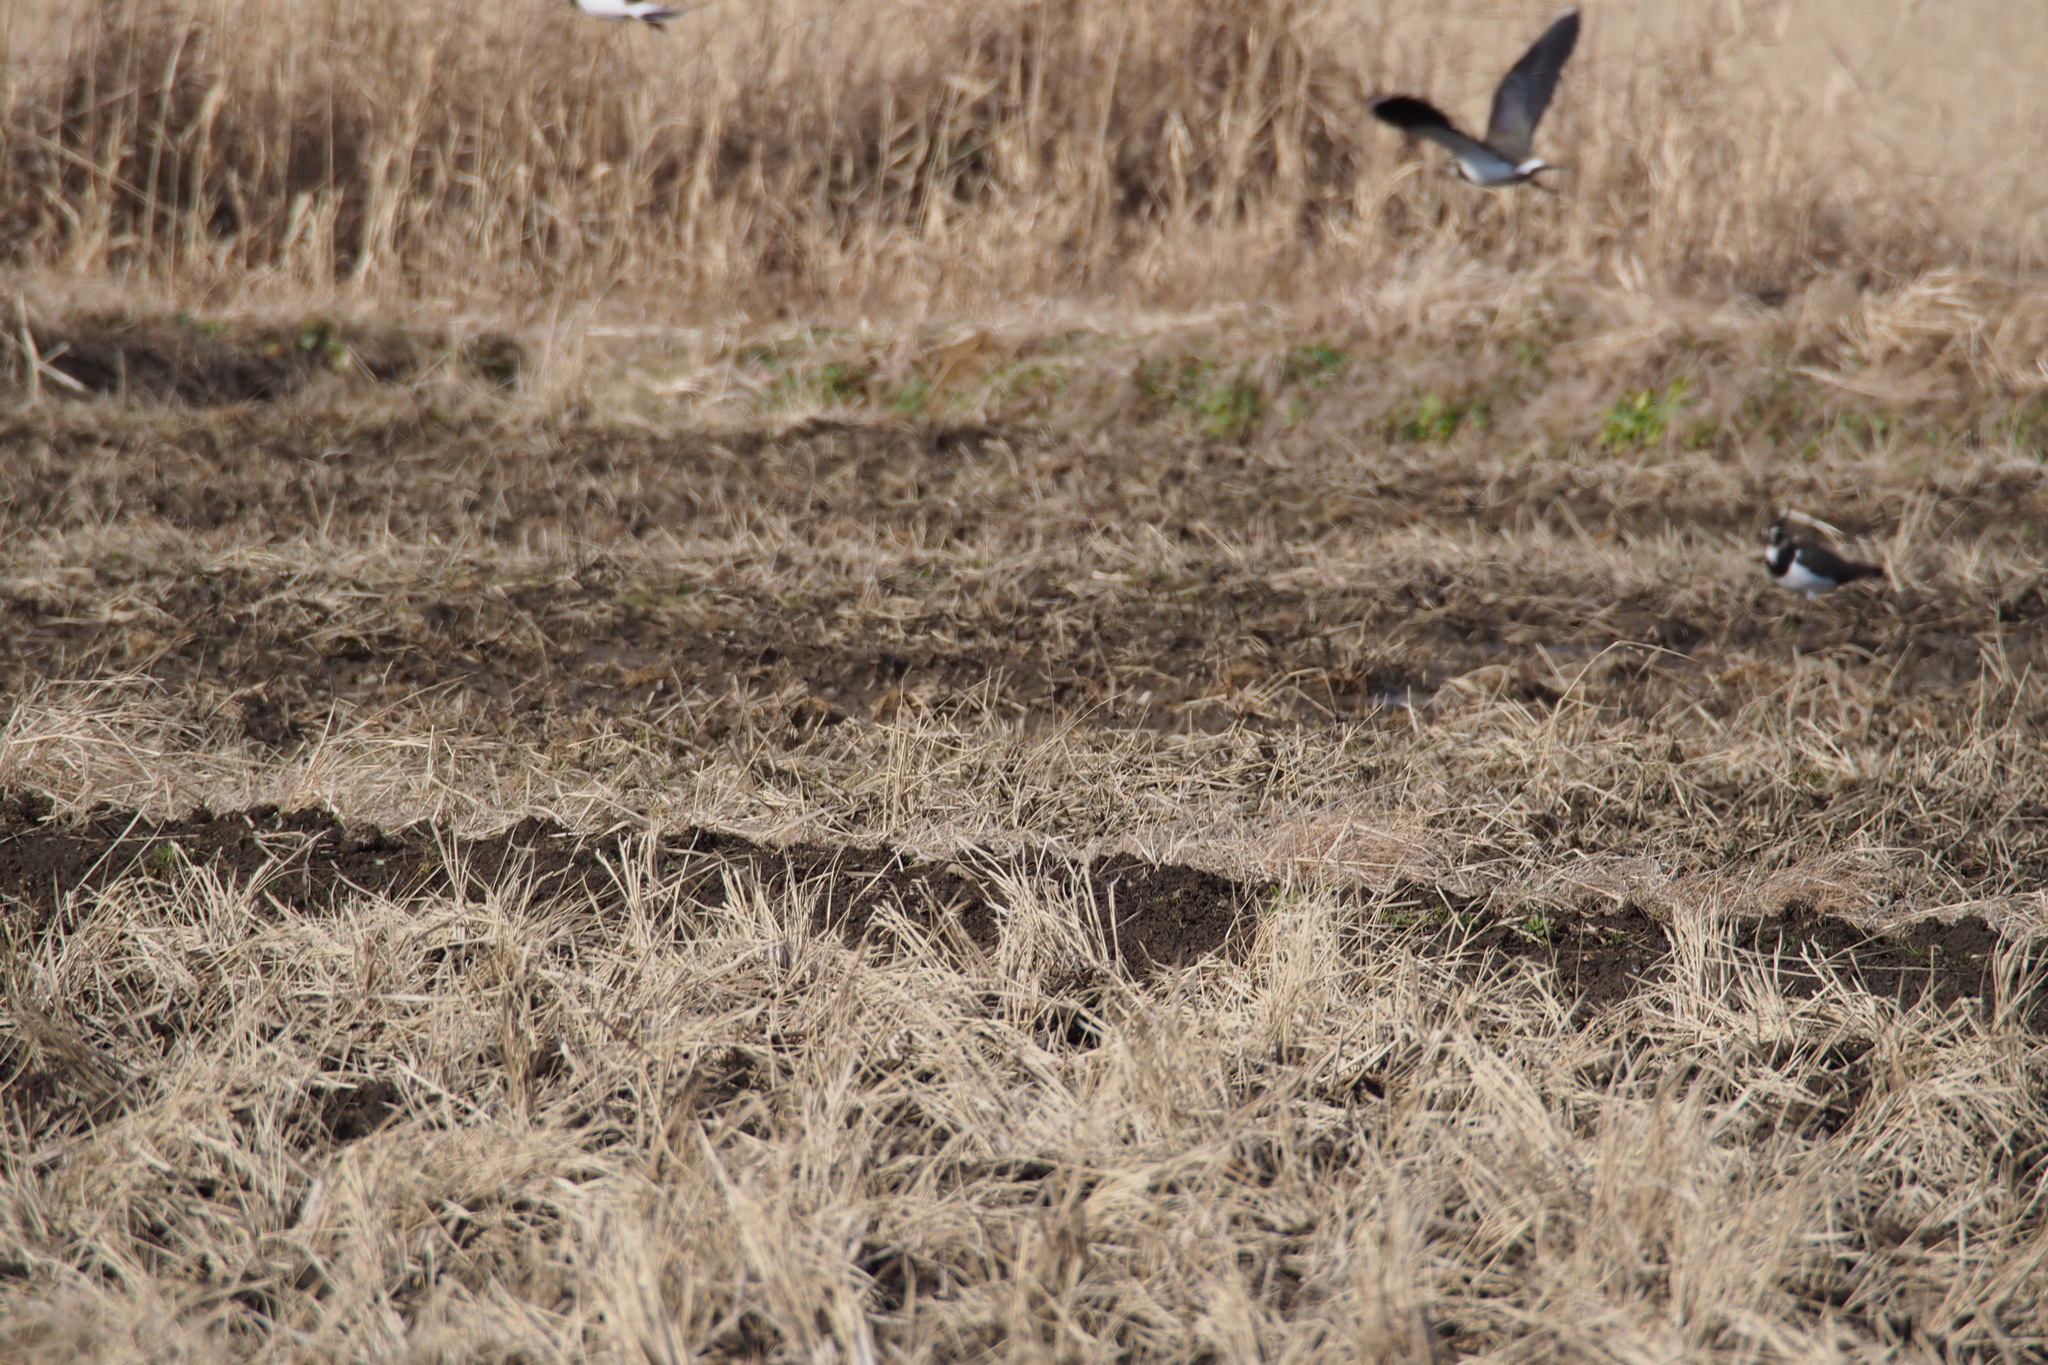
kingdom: Animalia
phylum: Chordata
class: Aves
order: Charadriiformes
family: Charadriidae
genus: Vanellus
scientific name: Vanellus vanellus
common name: Northern lapwing
